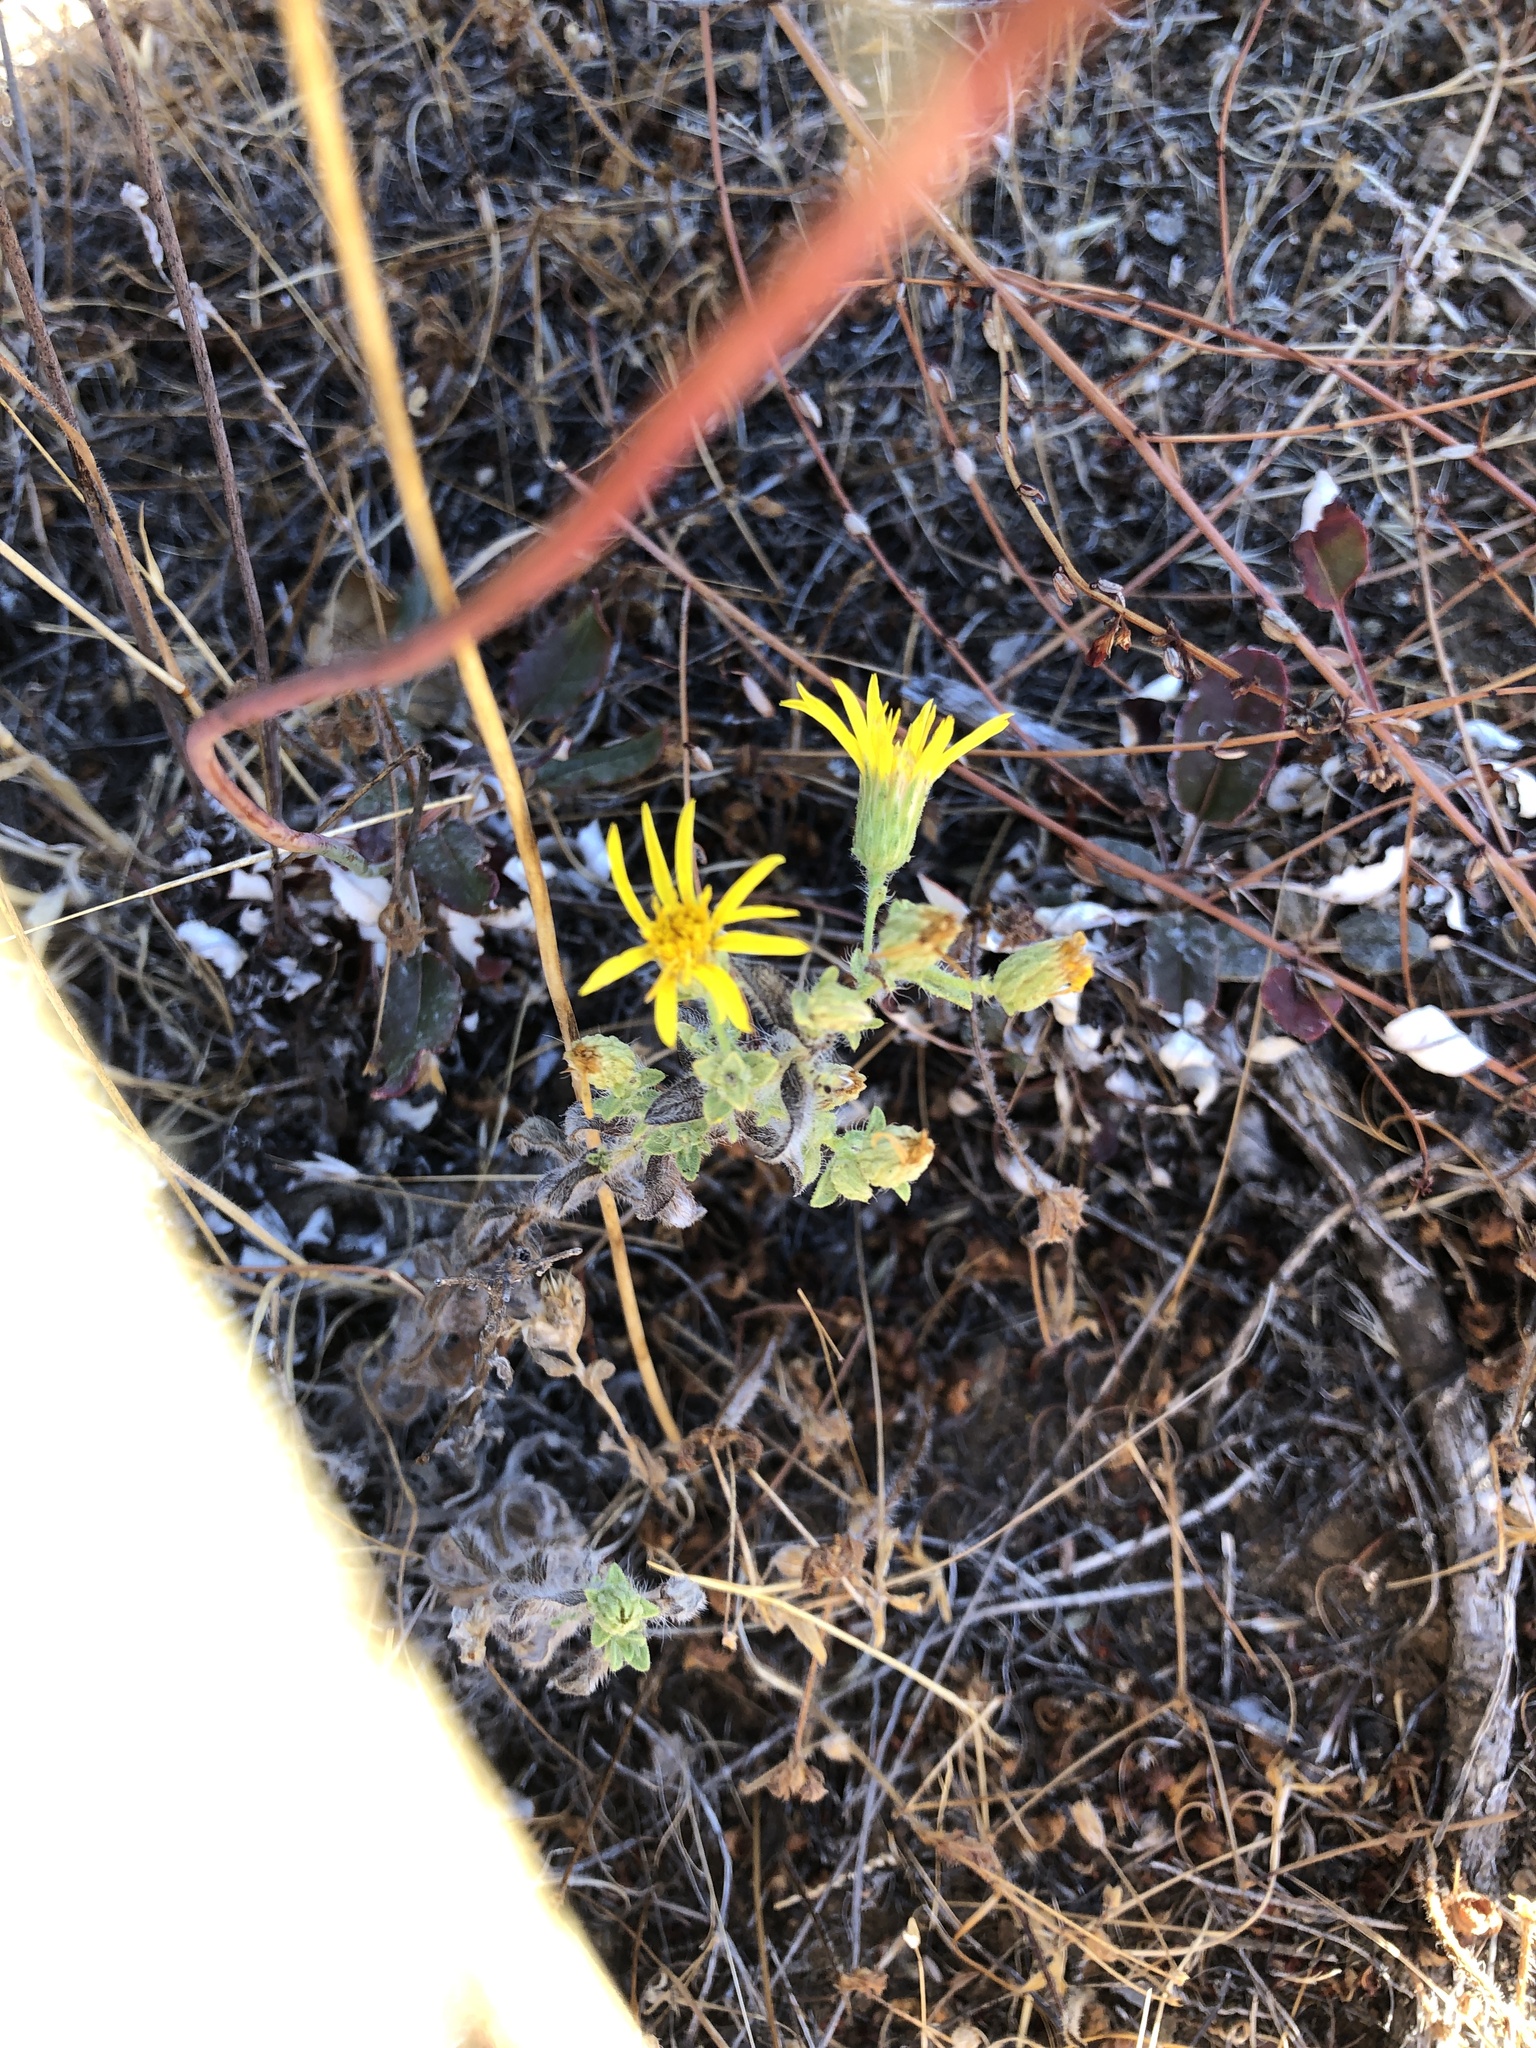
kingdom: Plantae
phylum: Tracheophyta
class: Magnoliopsida
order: Asterales
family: Asteraceae
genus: Heterotheca
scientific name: Heterotheca sessiliflora
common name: Sessile-flower golden-aster
